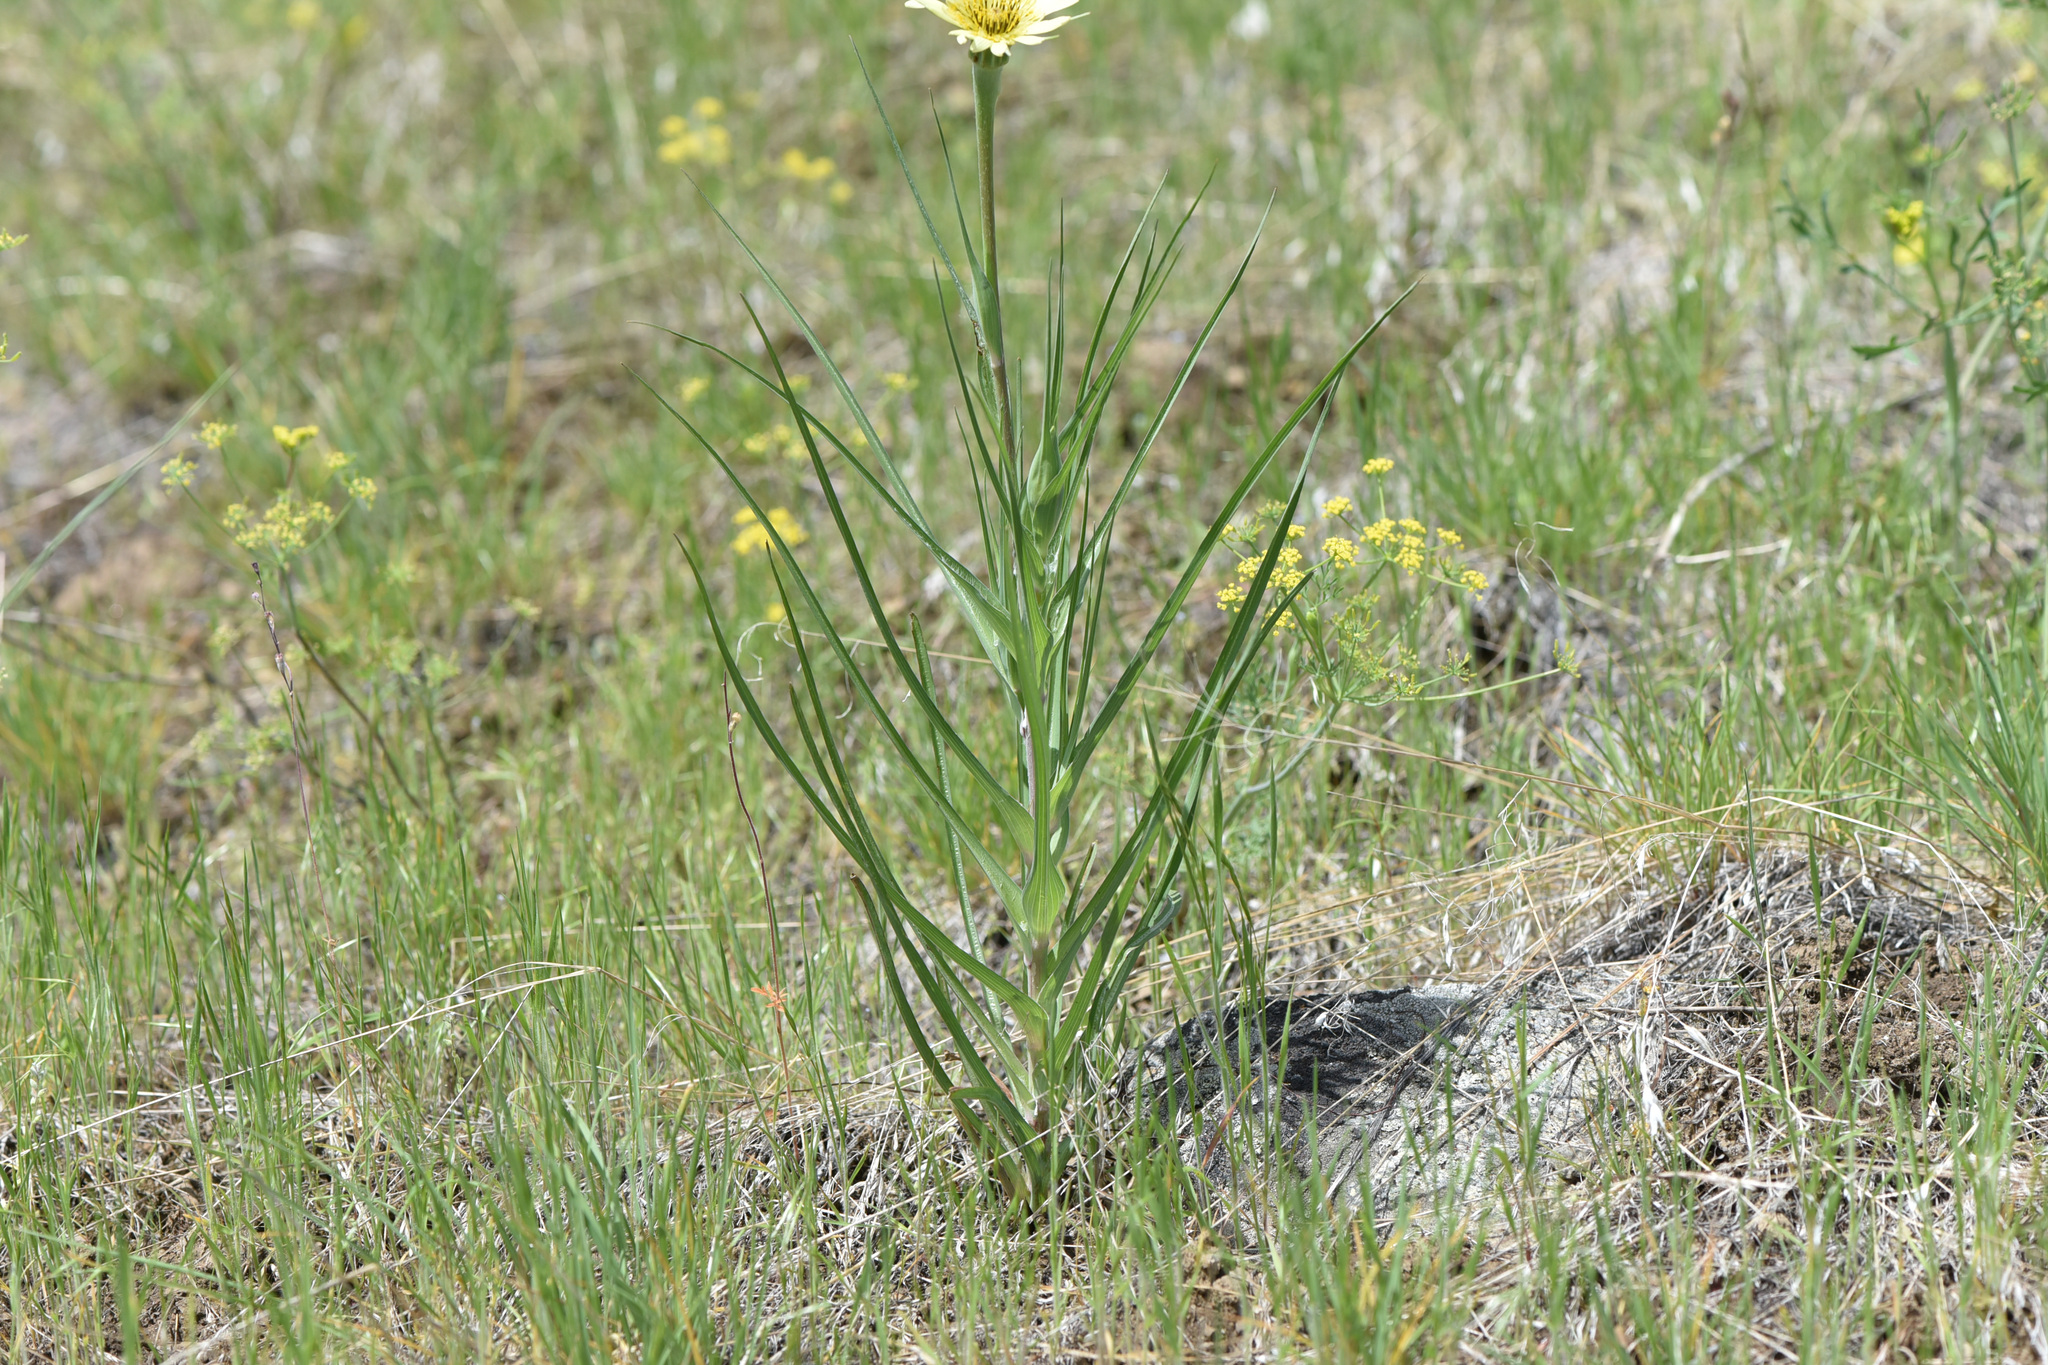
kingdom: Plantae
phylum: Tracheophyta
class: Magnoliopsida
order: Asterales
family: Asteraceae
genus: Tragopogon
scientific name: Tragopogon dubius
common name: Yellow salsify
